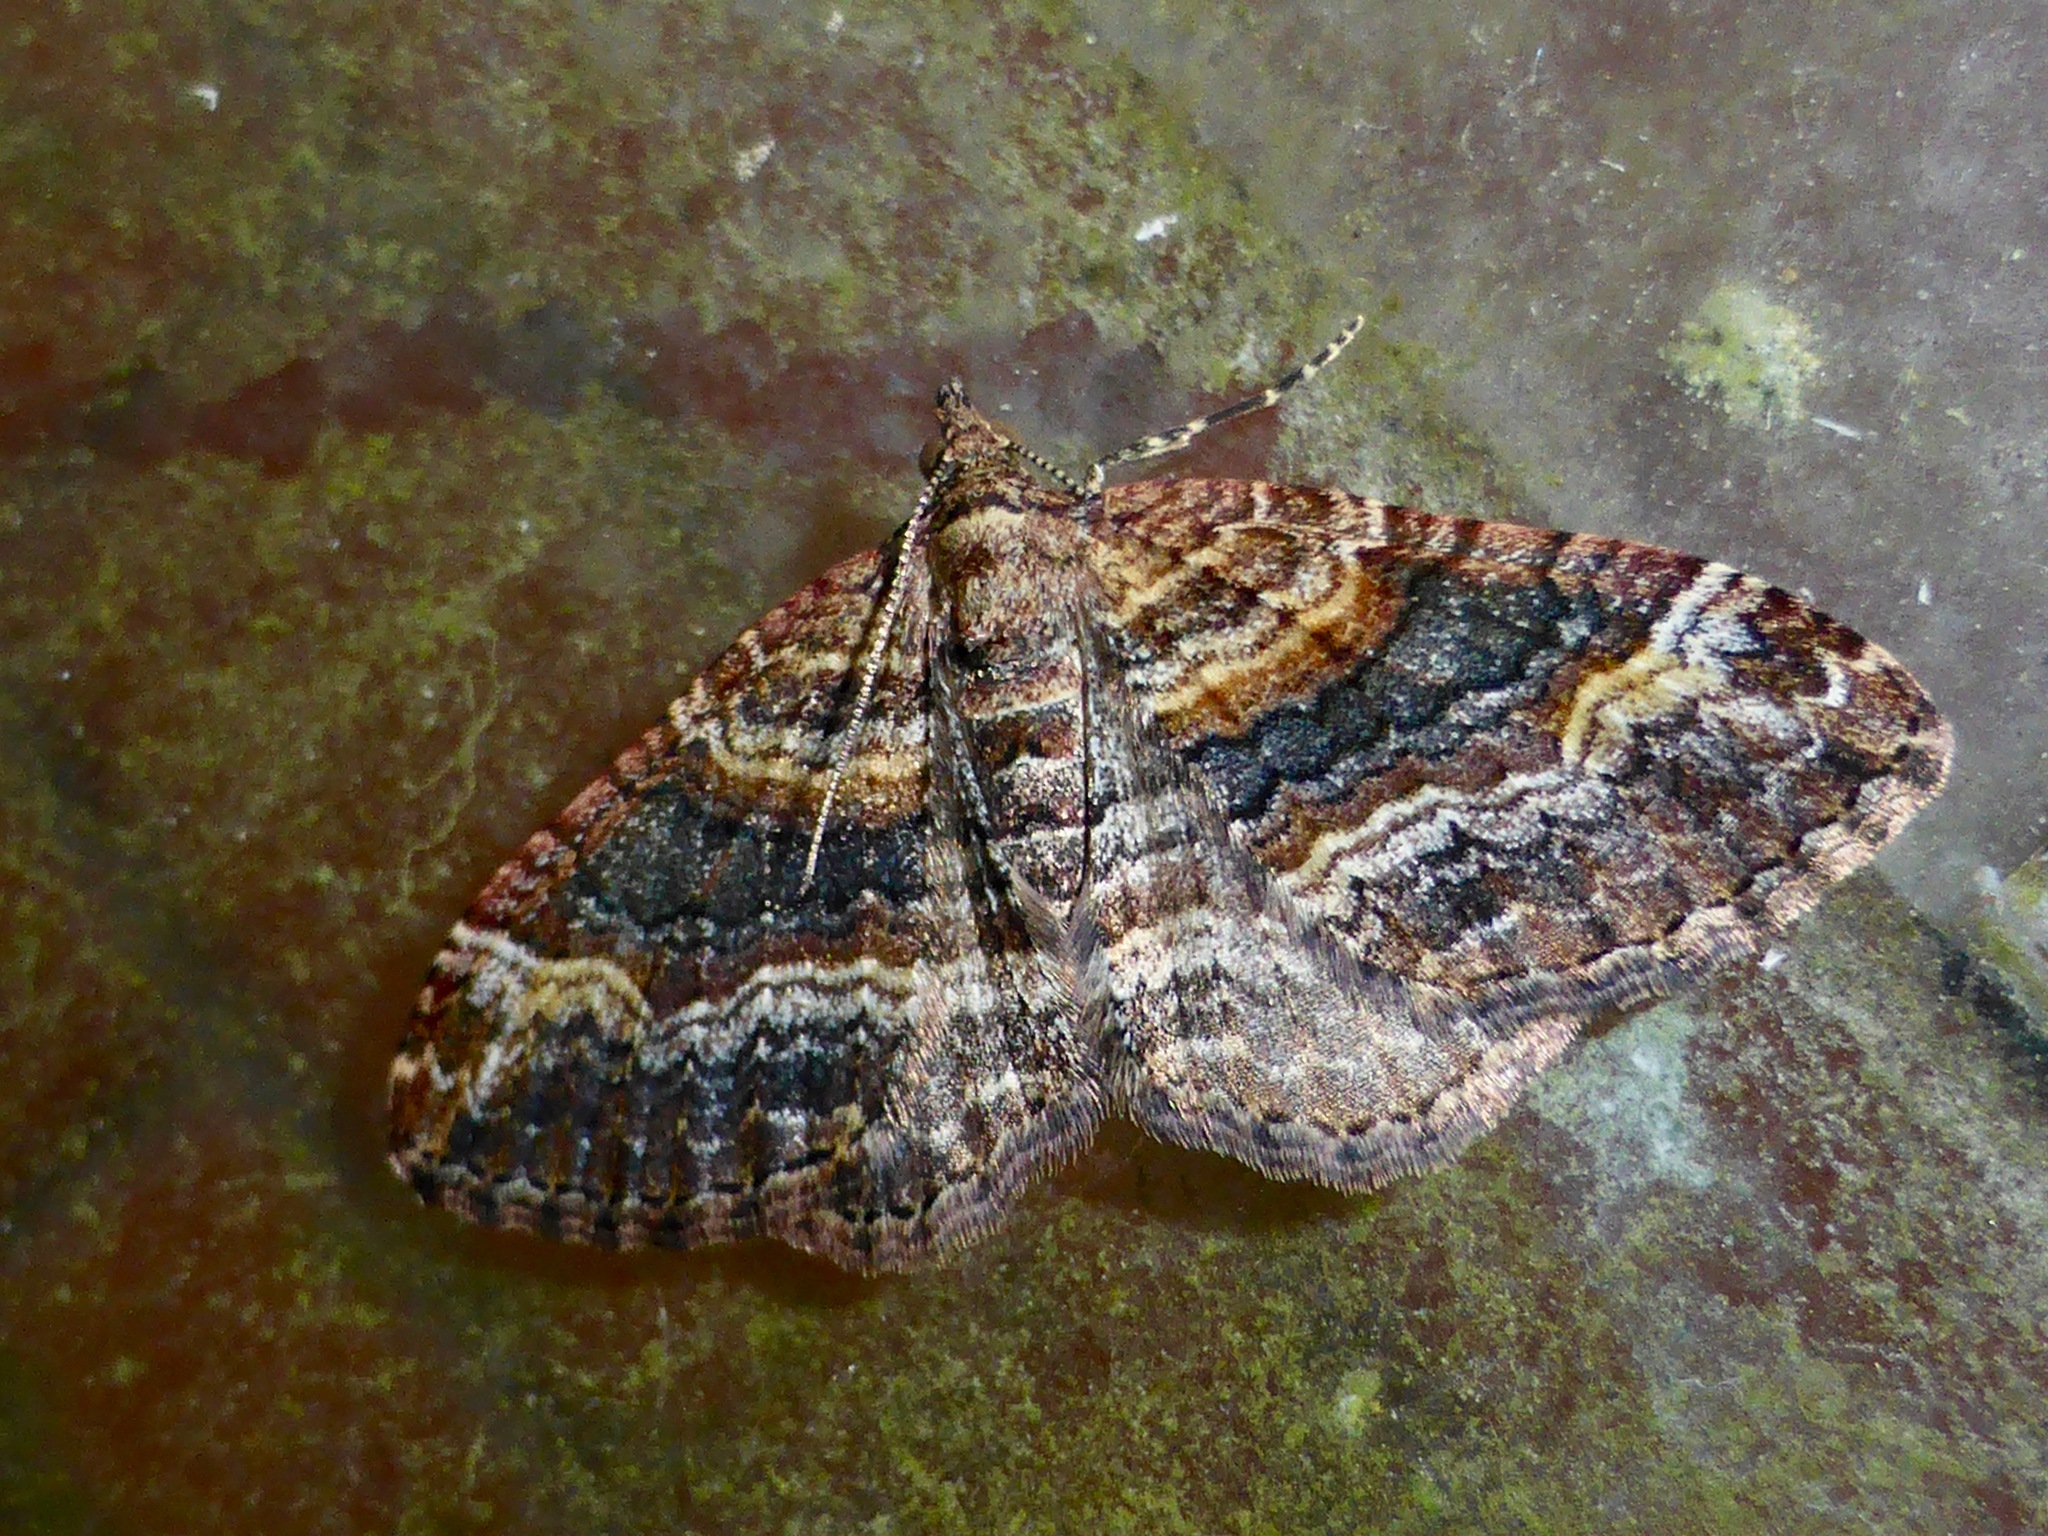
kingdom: Animalia
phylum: Arthropoda
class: Insecta
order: Lepidoptera
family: Geometridae
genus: Epyaxa
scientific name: Epyaxa lucidata
